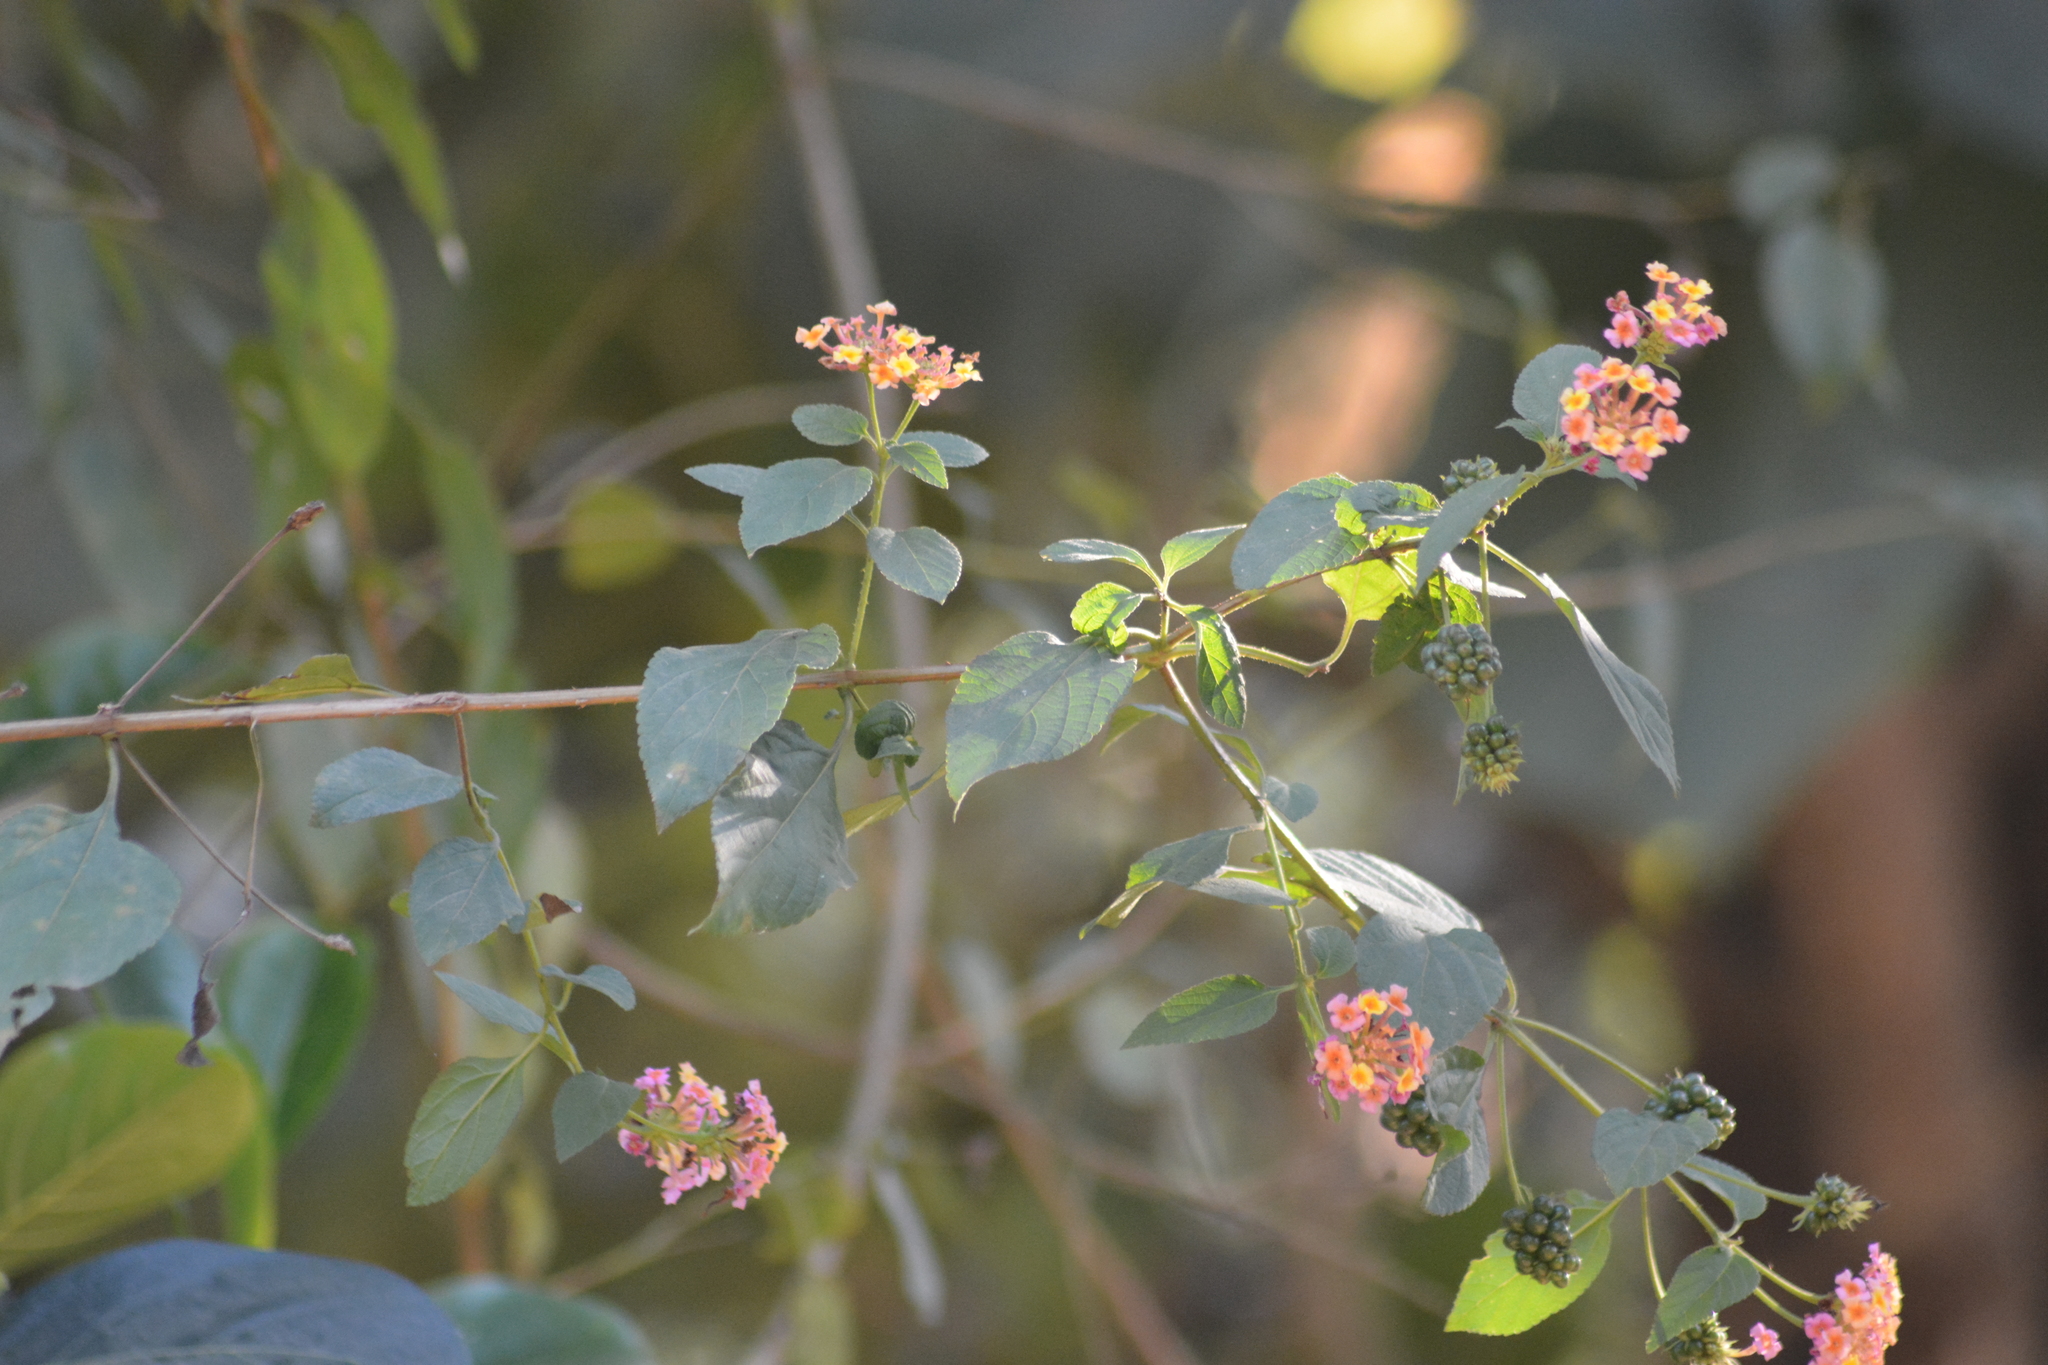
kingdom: Plantae
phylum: Tracheophyta
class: Magnoliopsida
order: Lamiales
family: Verbenaceae
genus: Lantana
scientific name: Lantana camara
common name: Lantana
